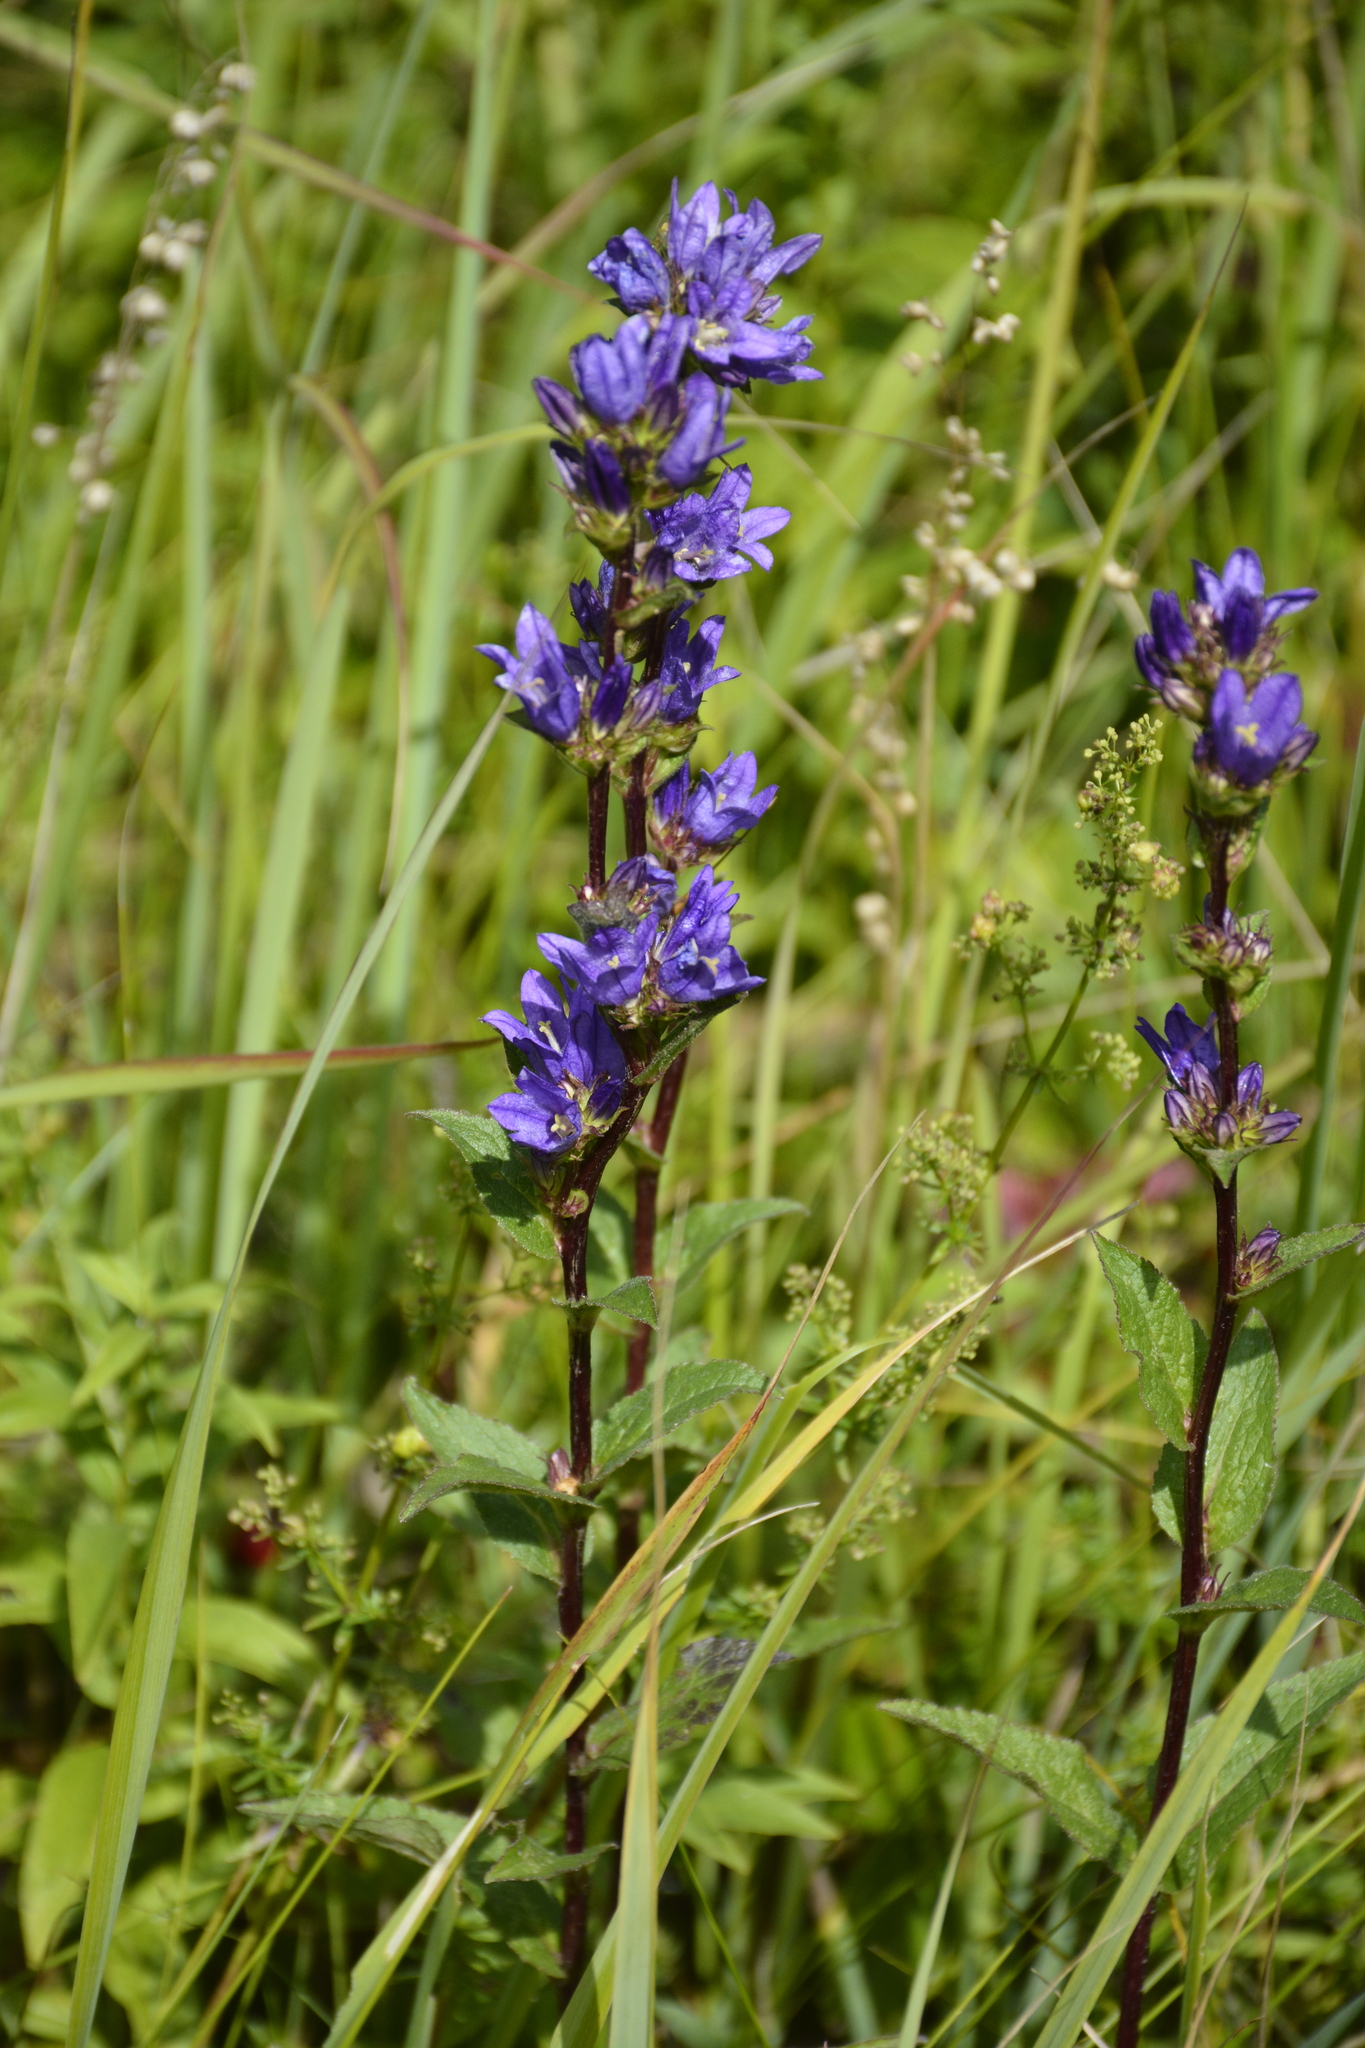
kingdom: Plantae
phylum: Tracheophyta
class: Magnoliopsida
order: Asterales
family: Campanulaceae
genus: Campanula
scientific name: Campanula glomerata
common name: Clustered bellflower
